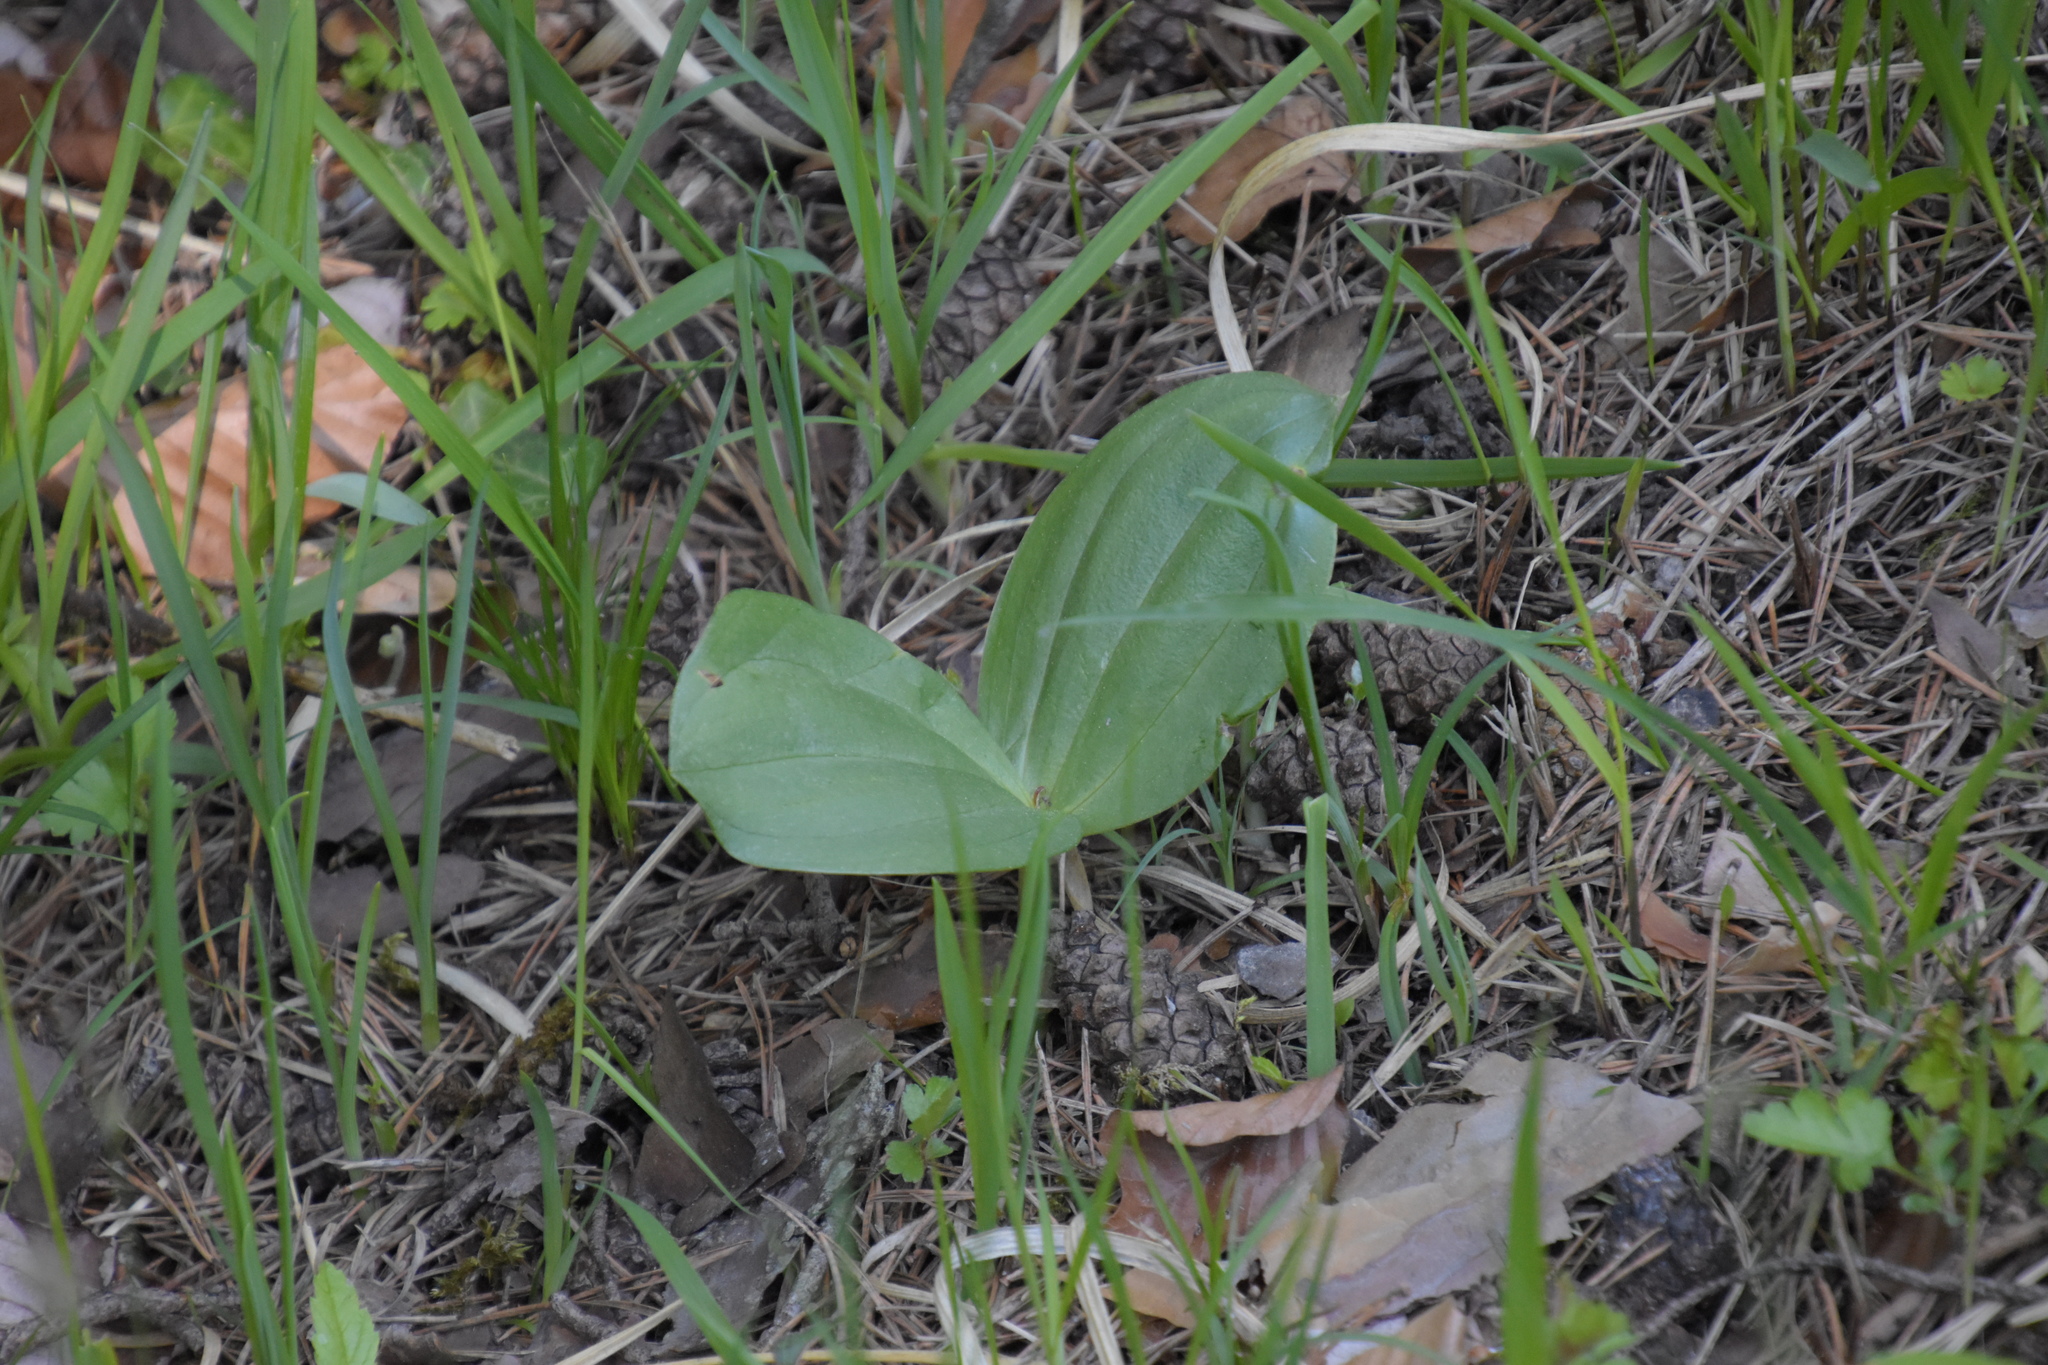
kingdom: Plantae
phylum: Tracheophyta
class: Liliopsida
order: Asparagales
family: Orchidaceae
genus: Neottia
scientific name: Neottia ovata
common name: Common twayblade
